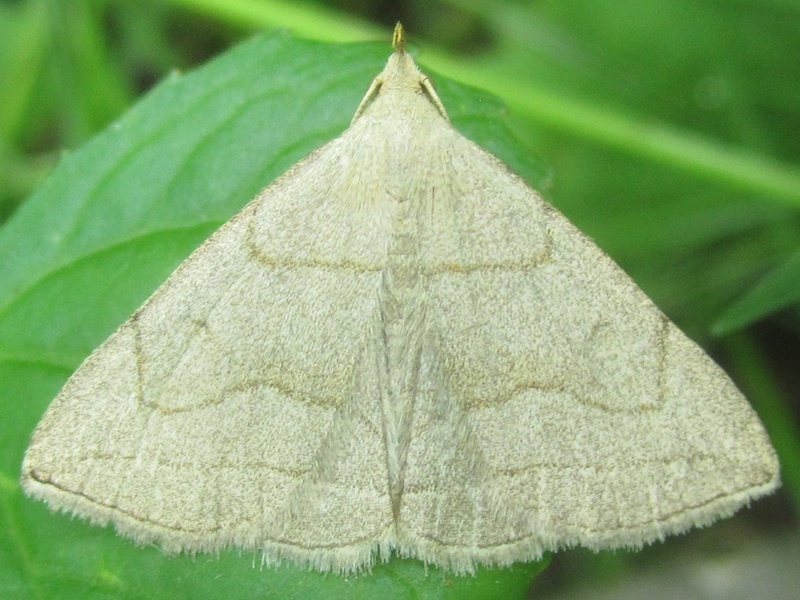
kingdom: Animalia
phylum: Arthropoda
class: Insecta
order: Lepidoptera
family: Erebidae
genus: Zanclognatha
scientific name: Zanclognatha pedipilalis
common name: Grayish fan-foot
